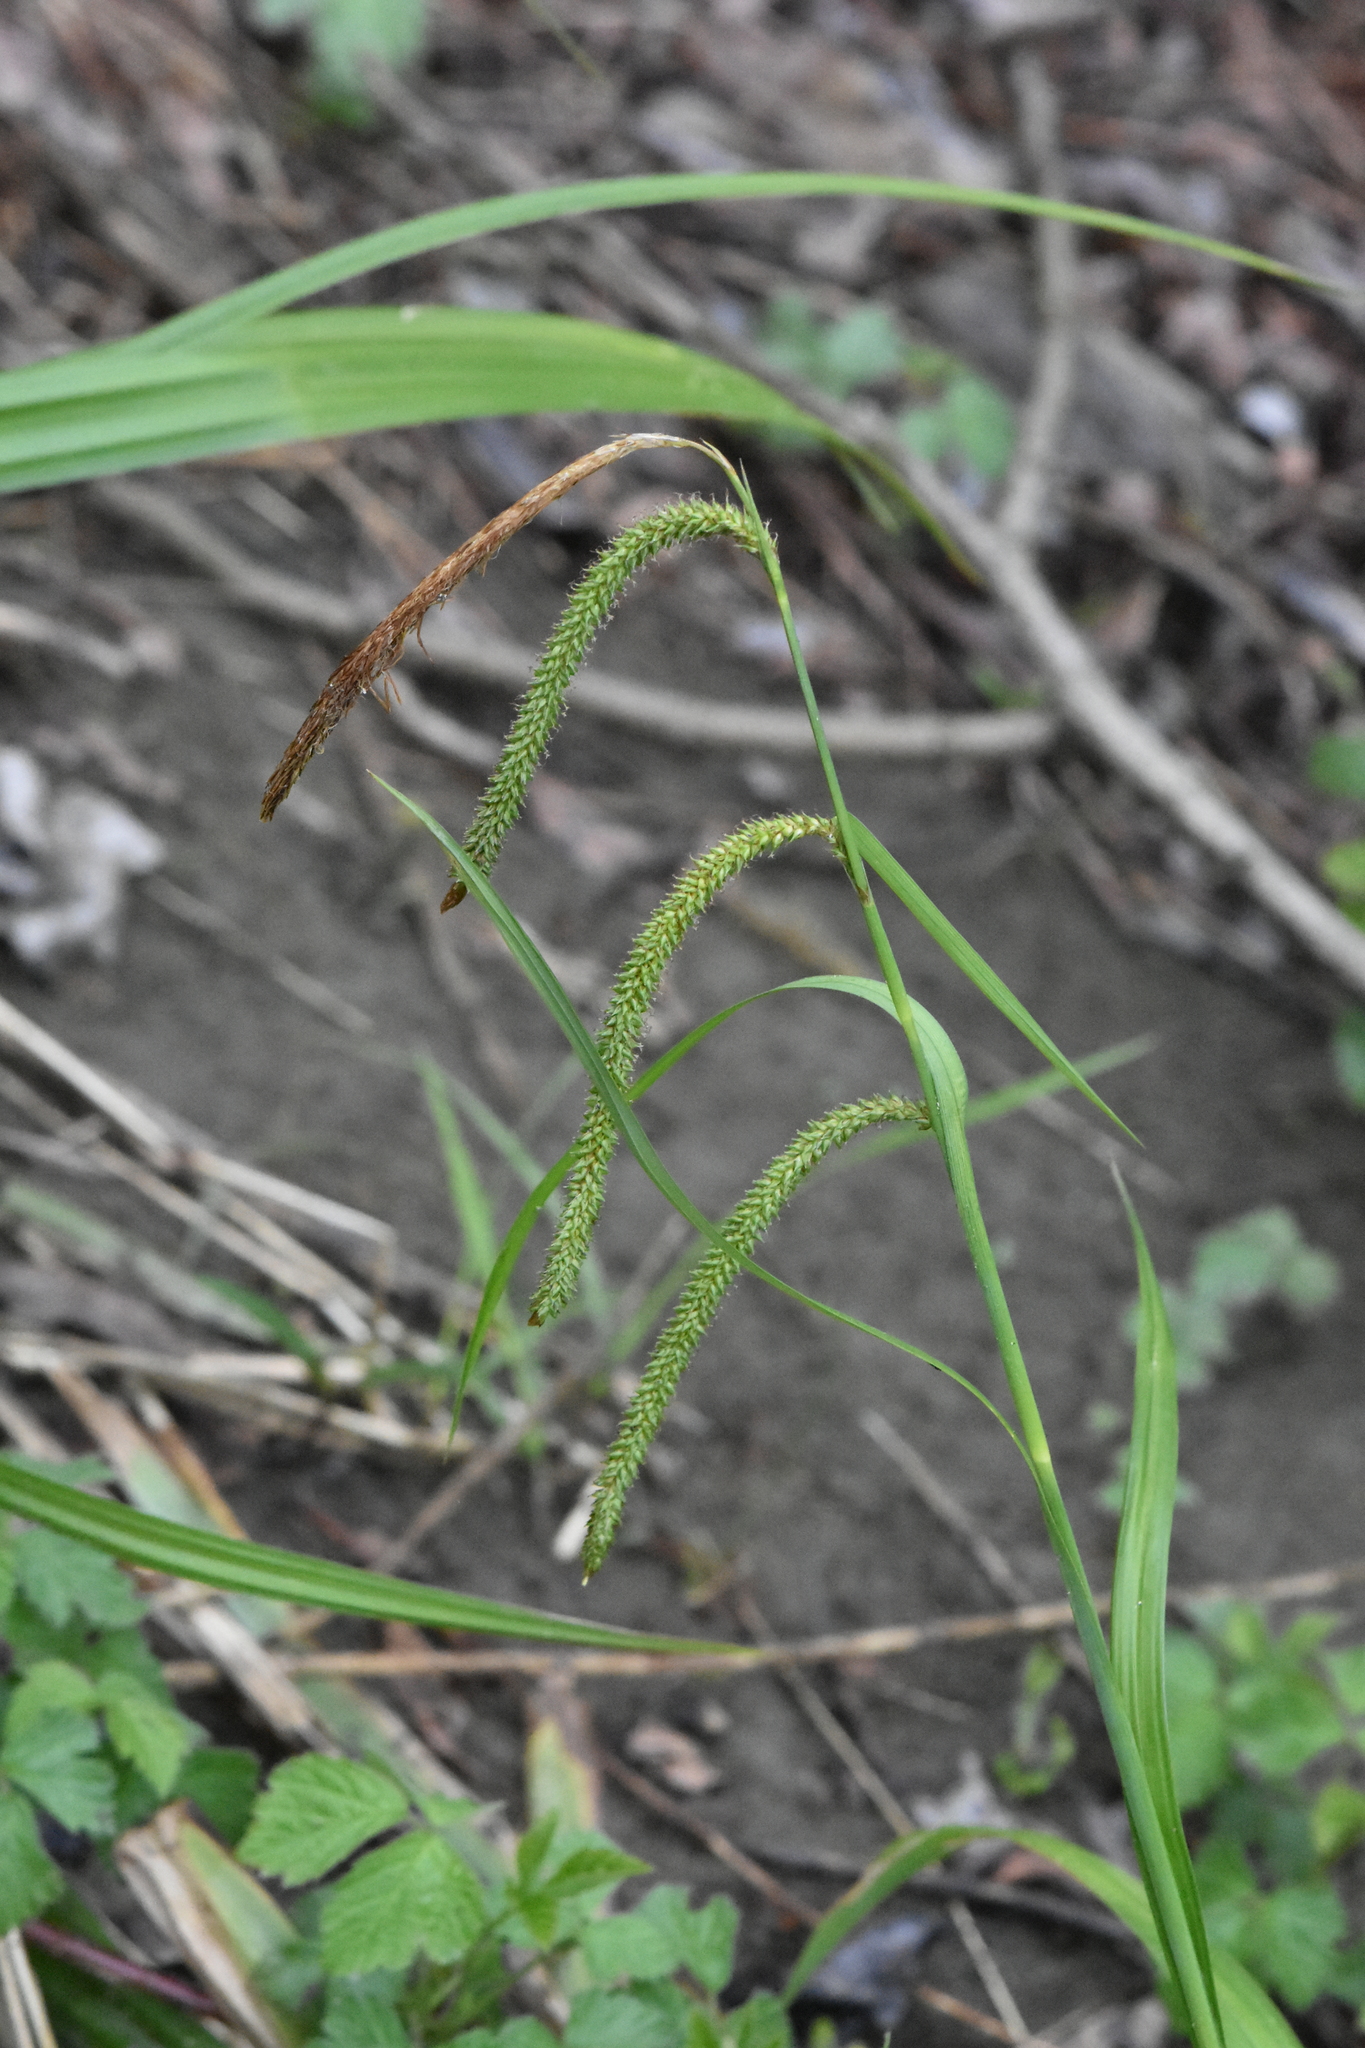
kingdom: Plantae
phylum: Tracheophyta
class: Liliopsida
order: Poales
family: Cyperaceae
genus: Carex
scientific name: Carex pendula
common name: Pendulous sedge
